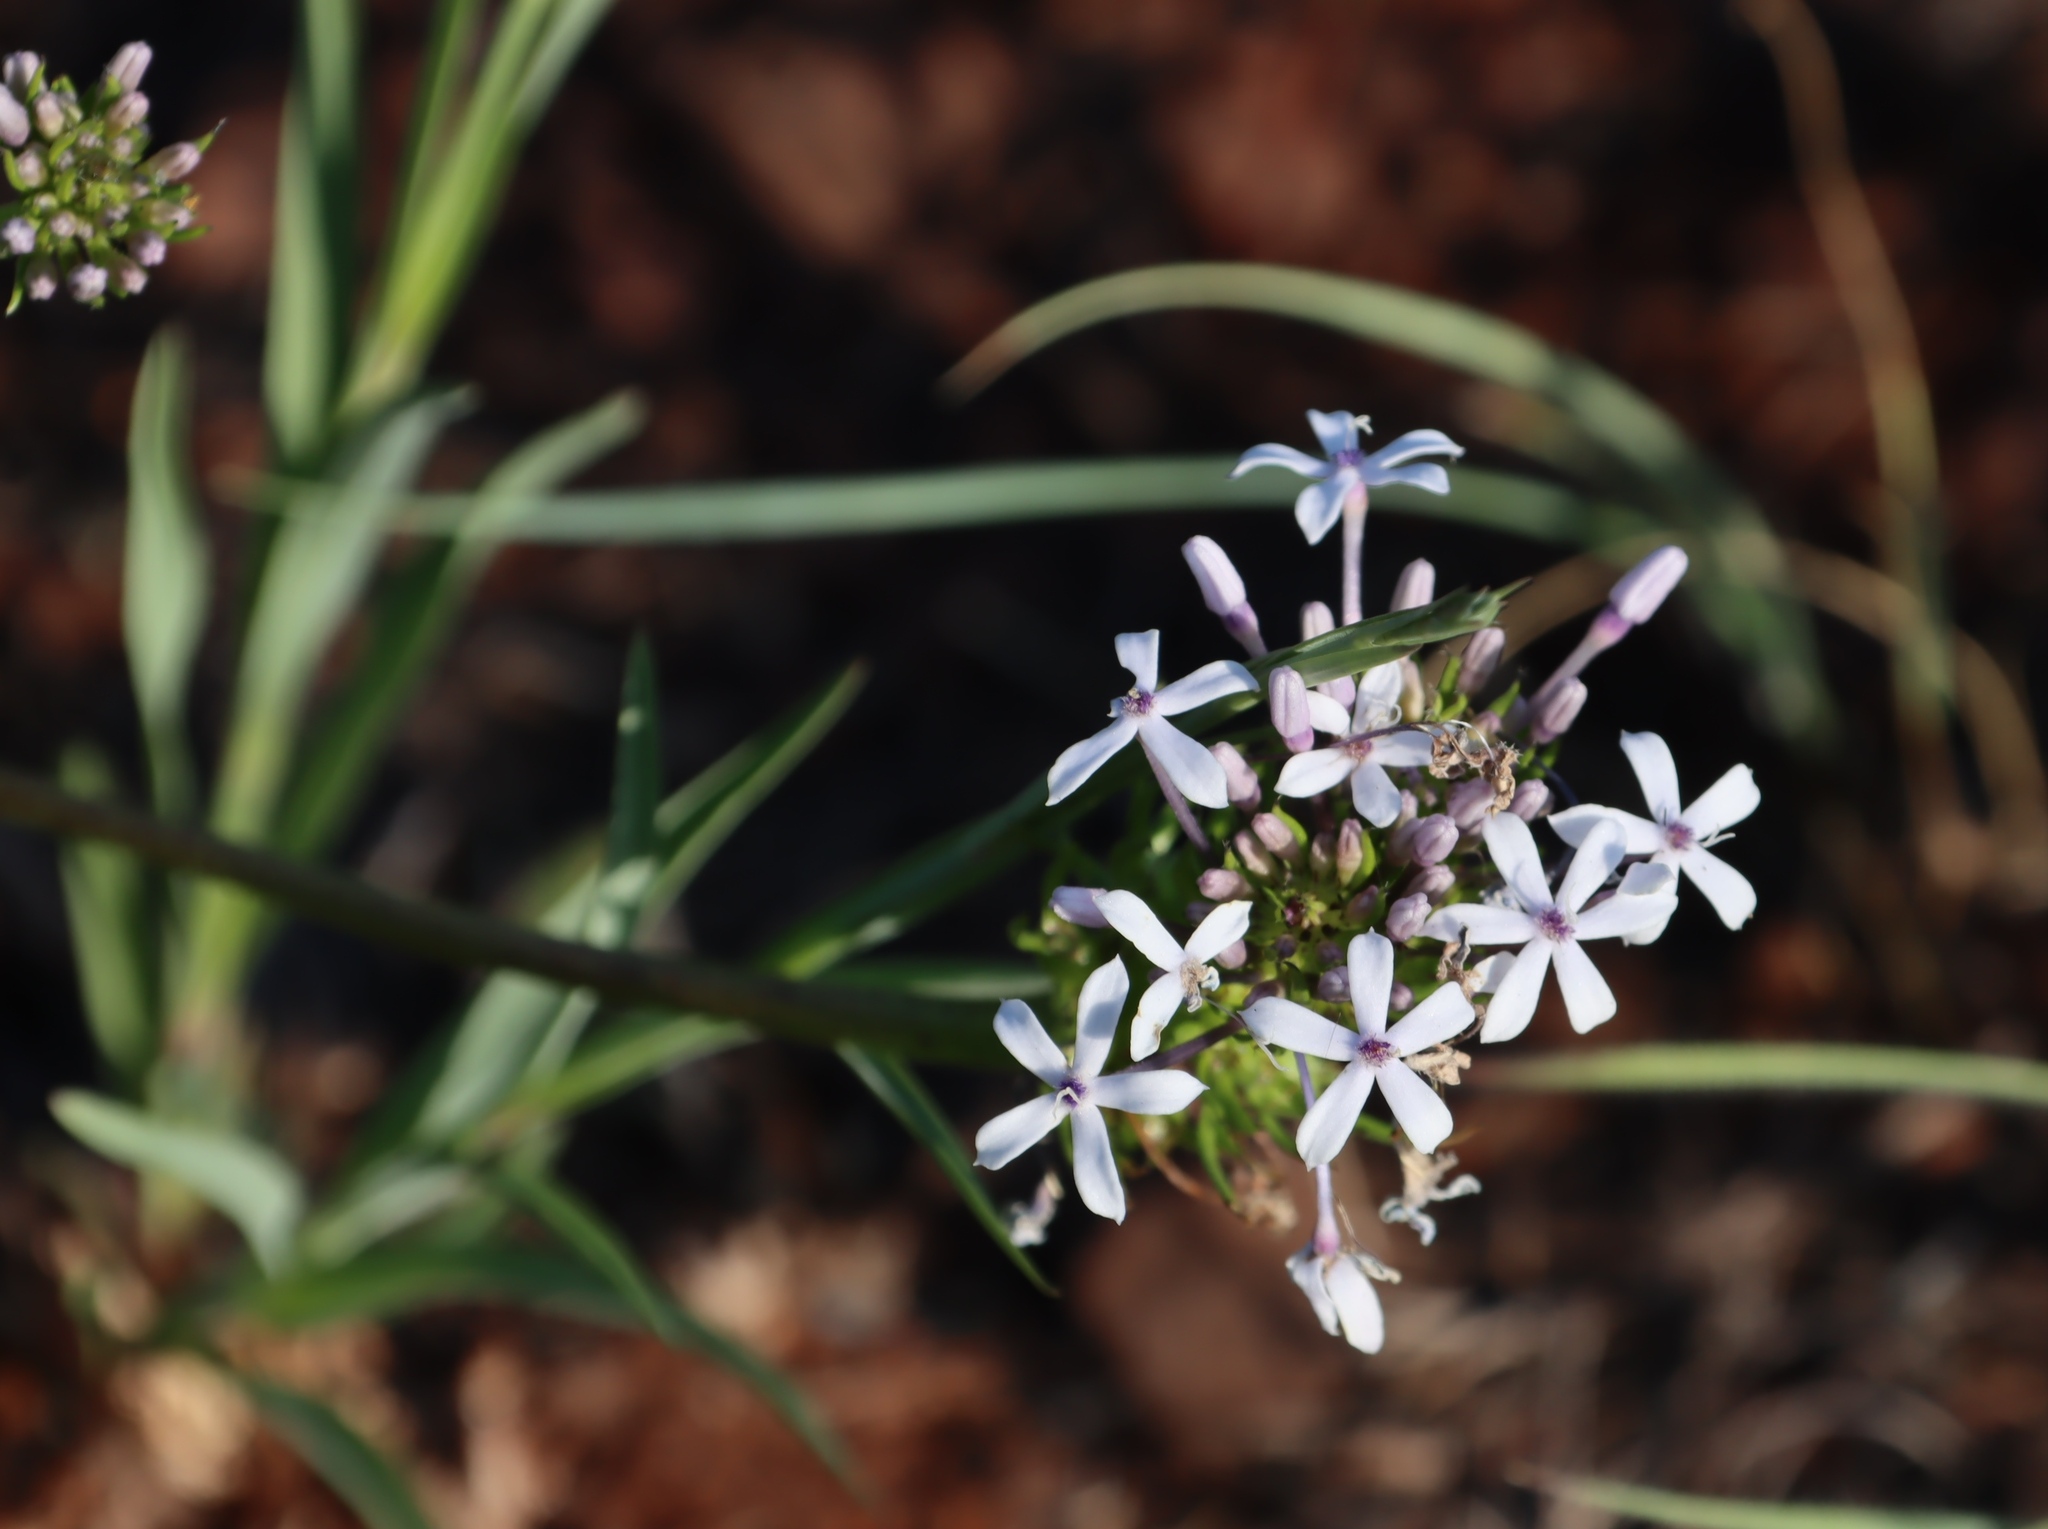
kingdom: Plantae
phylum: Tracheophyta
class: Magnoliopsida
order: Gentianales
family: Rubiaceae
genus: Pentanisia
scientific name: Pentanisia angustifolia
